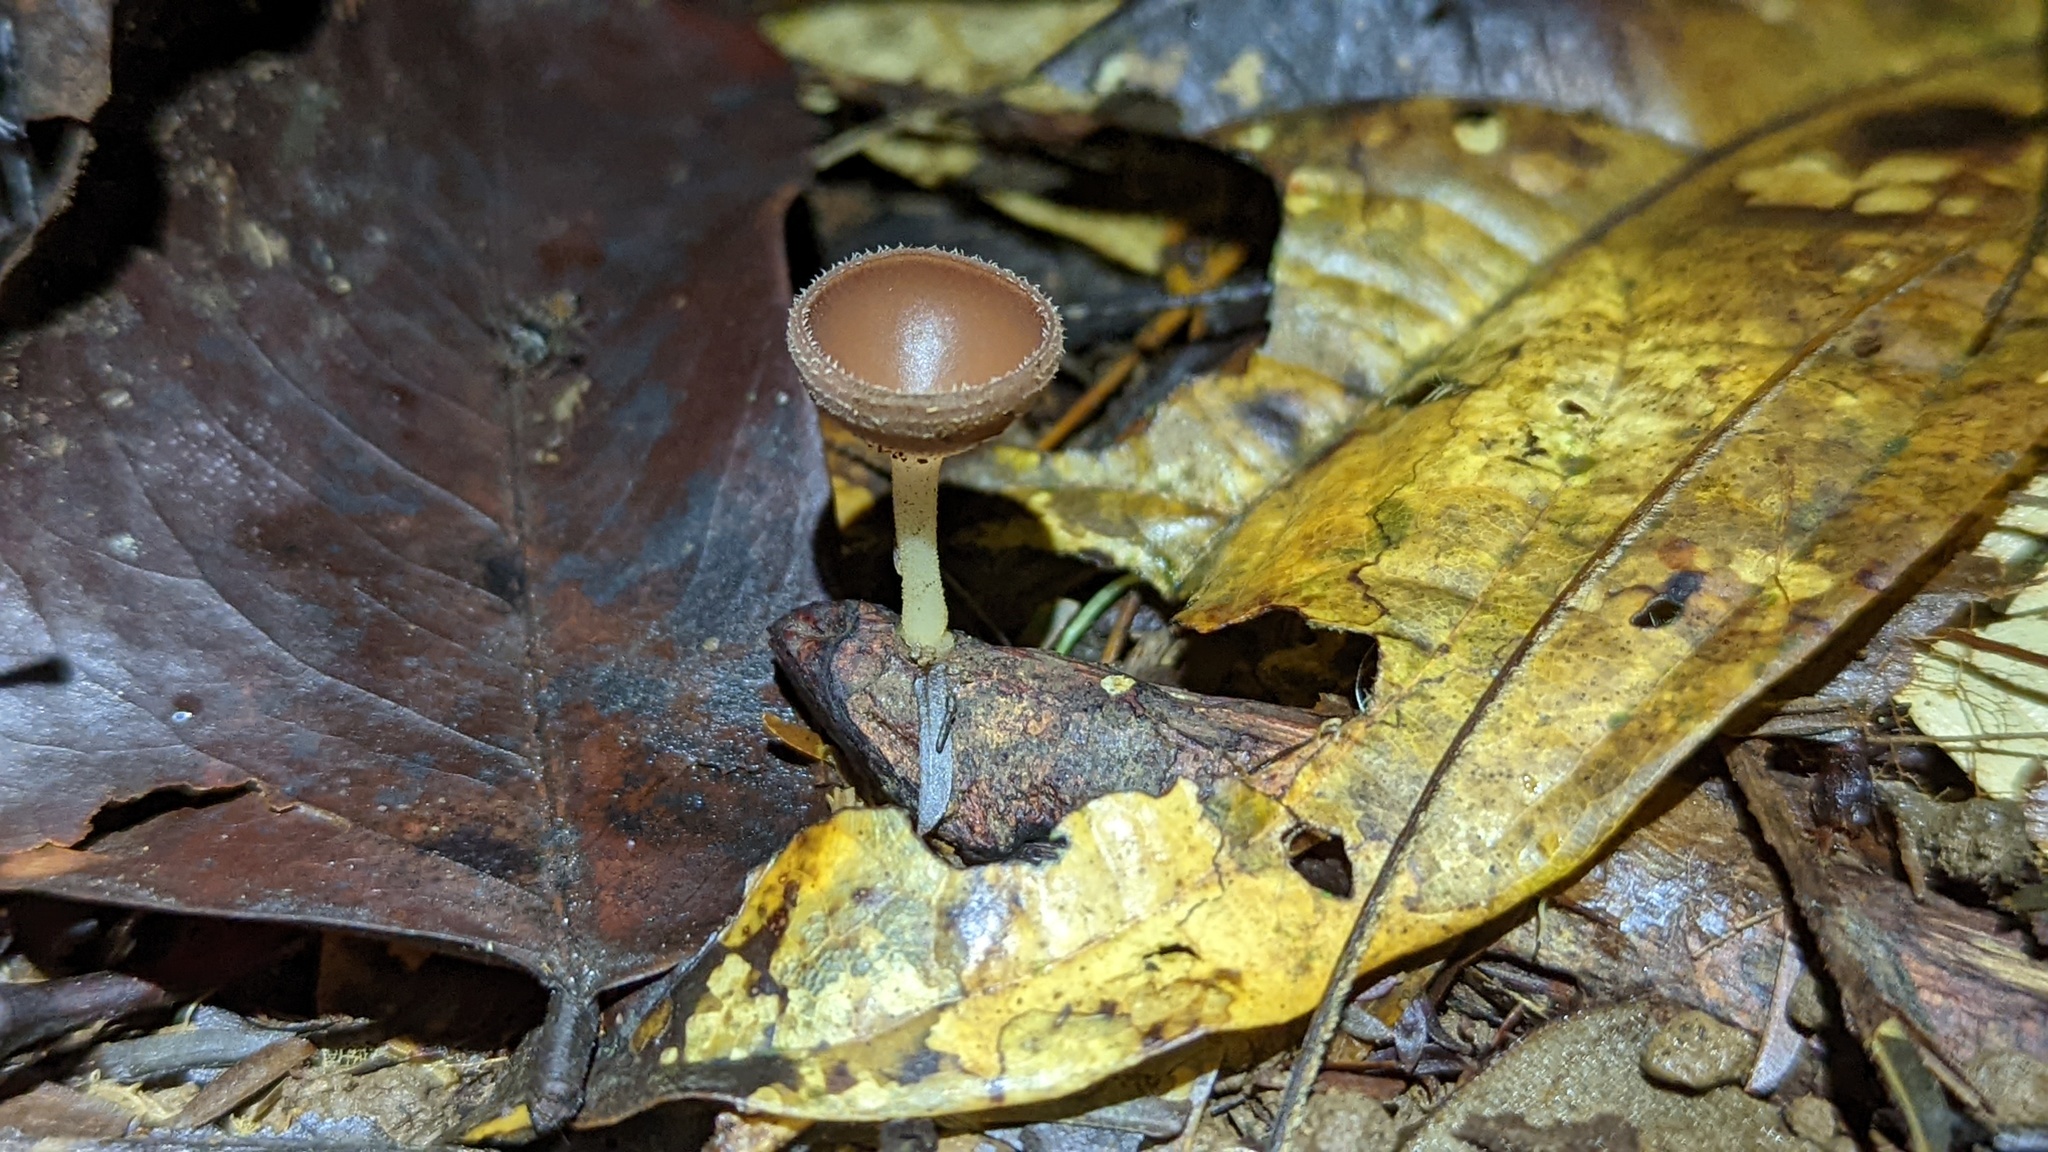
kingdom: Fungi
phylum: Ascomycota
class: Pezizomycetes
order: Pezizales
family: Sarcoscyphaceae
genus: Cookeina
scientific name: Cookeina colombiana
